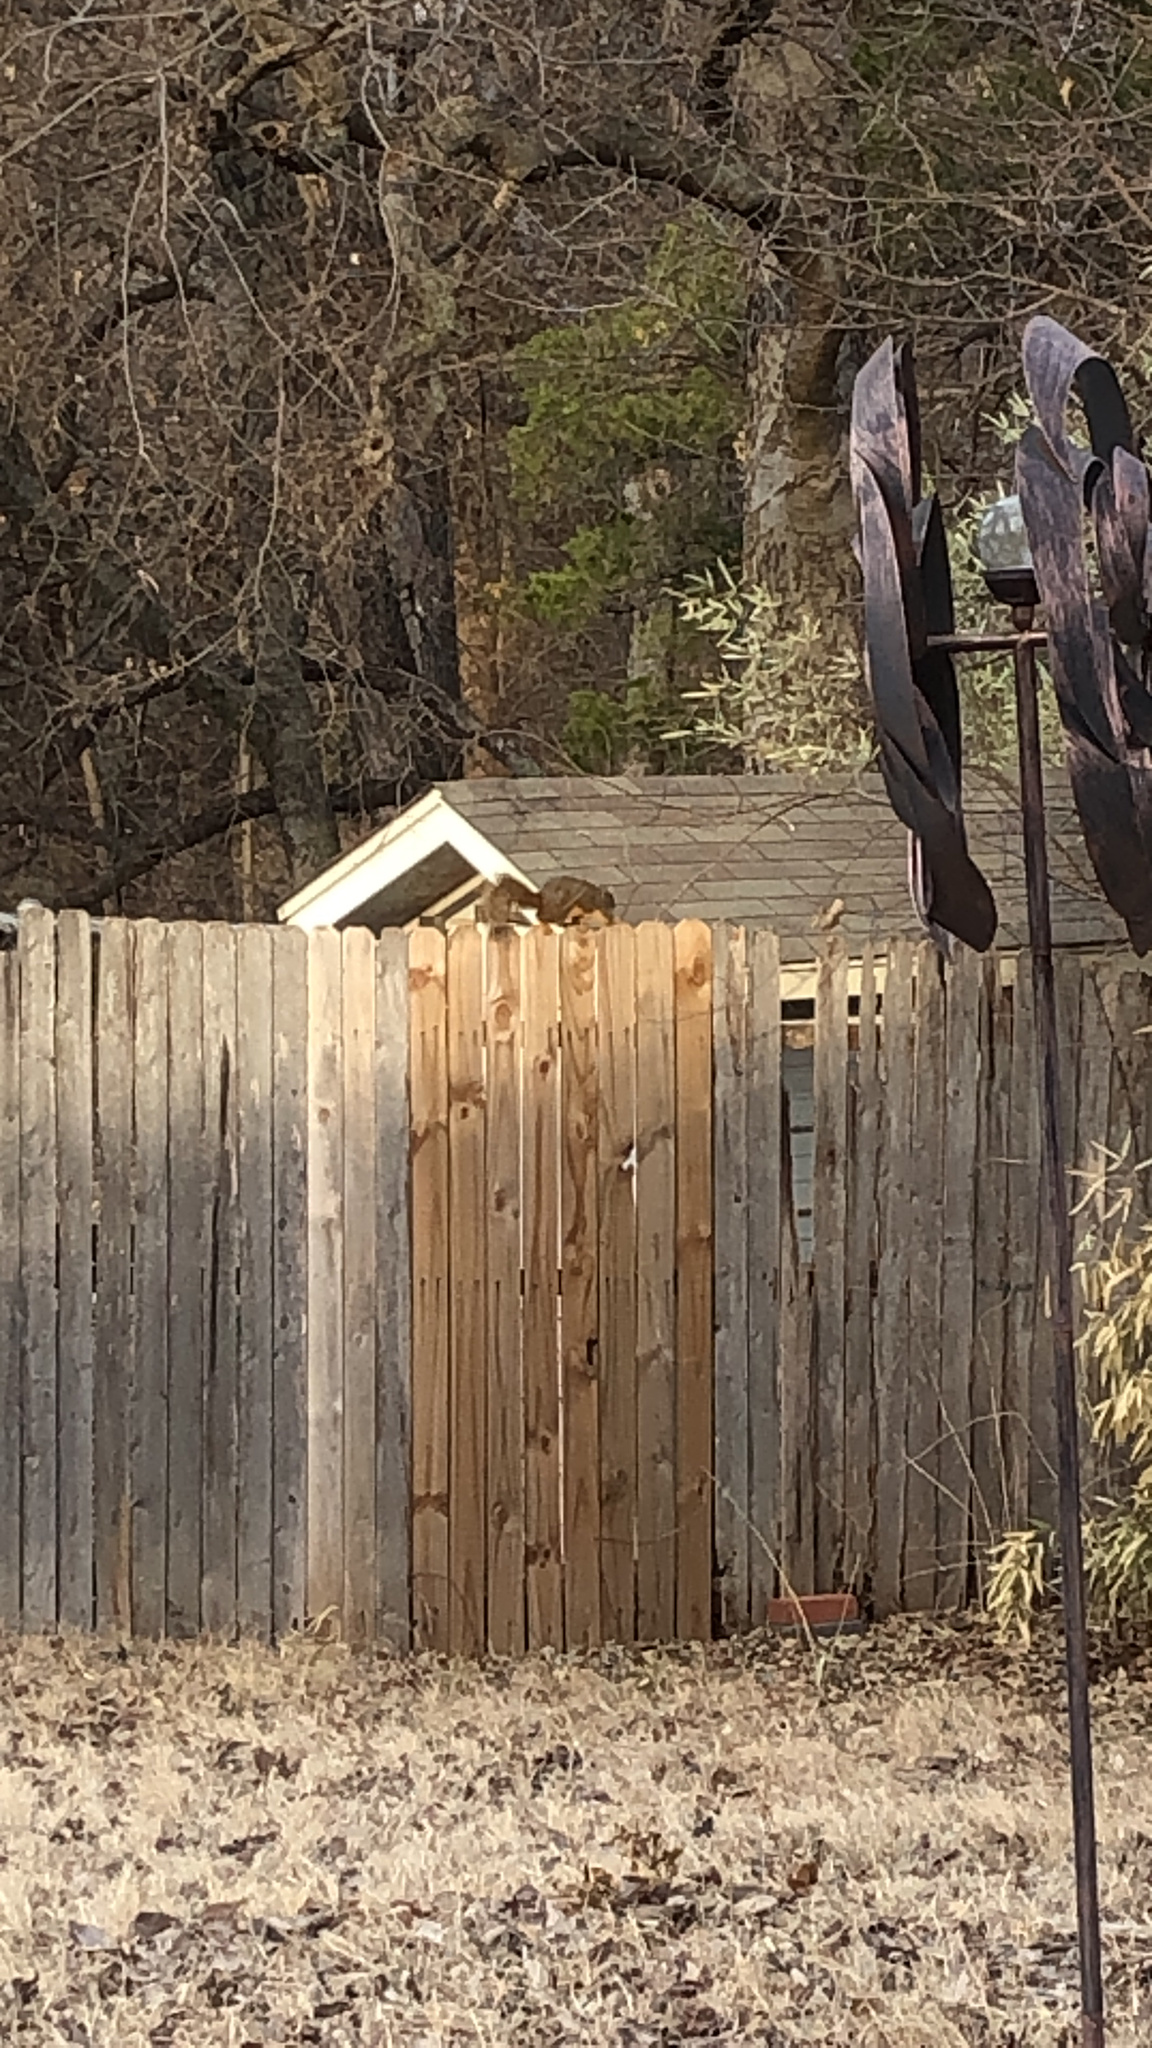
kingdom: Animalia
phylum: Chordata
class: Mammalia
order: Rodentia
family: Sciuridae
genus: Sciurus
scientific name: Sciurus niger
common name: Fox squirrel
